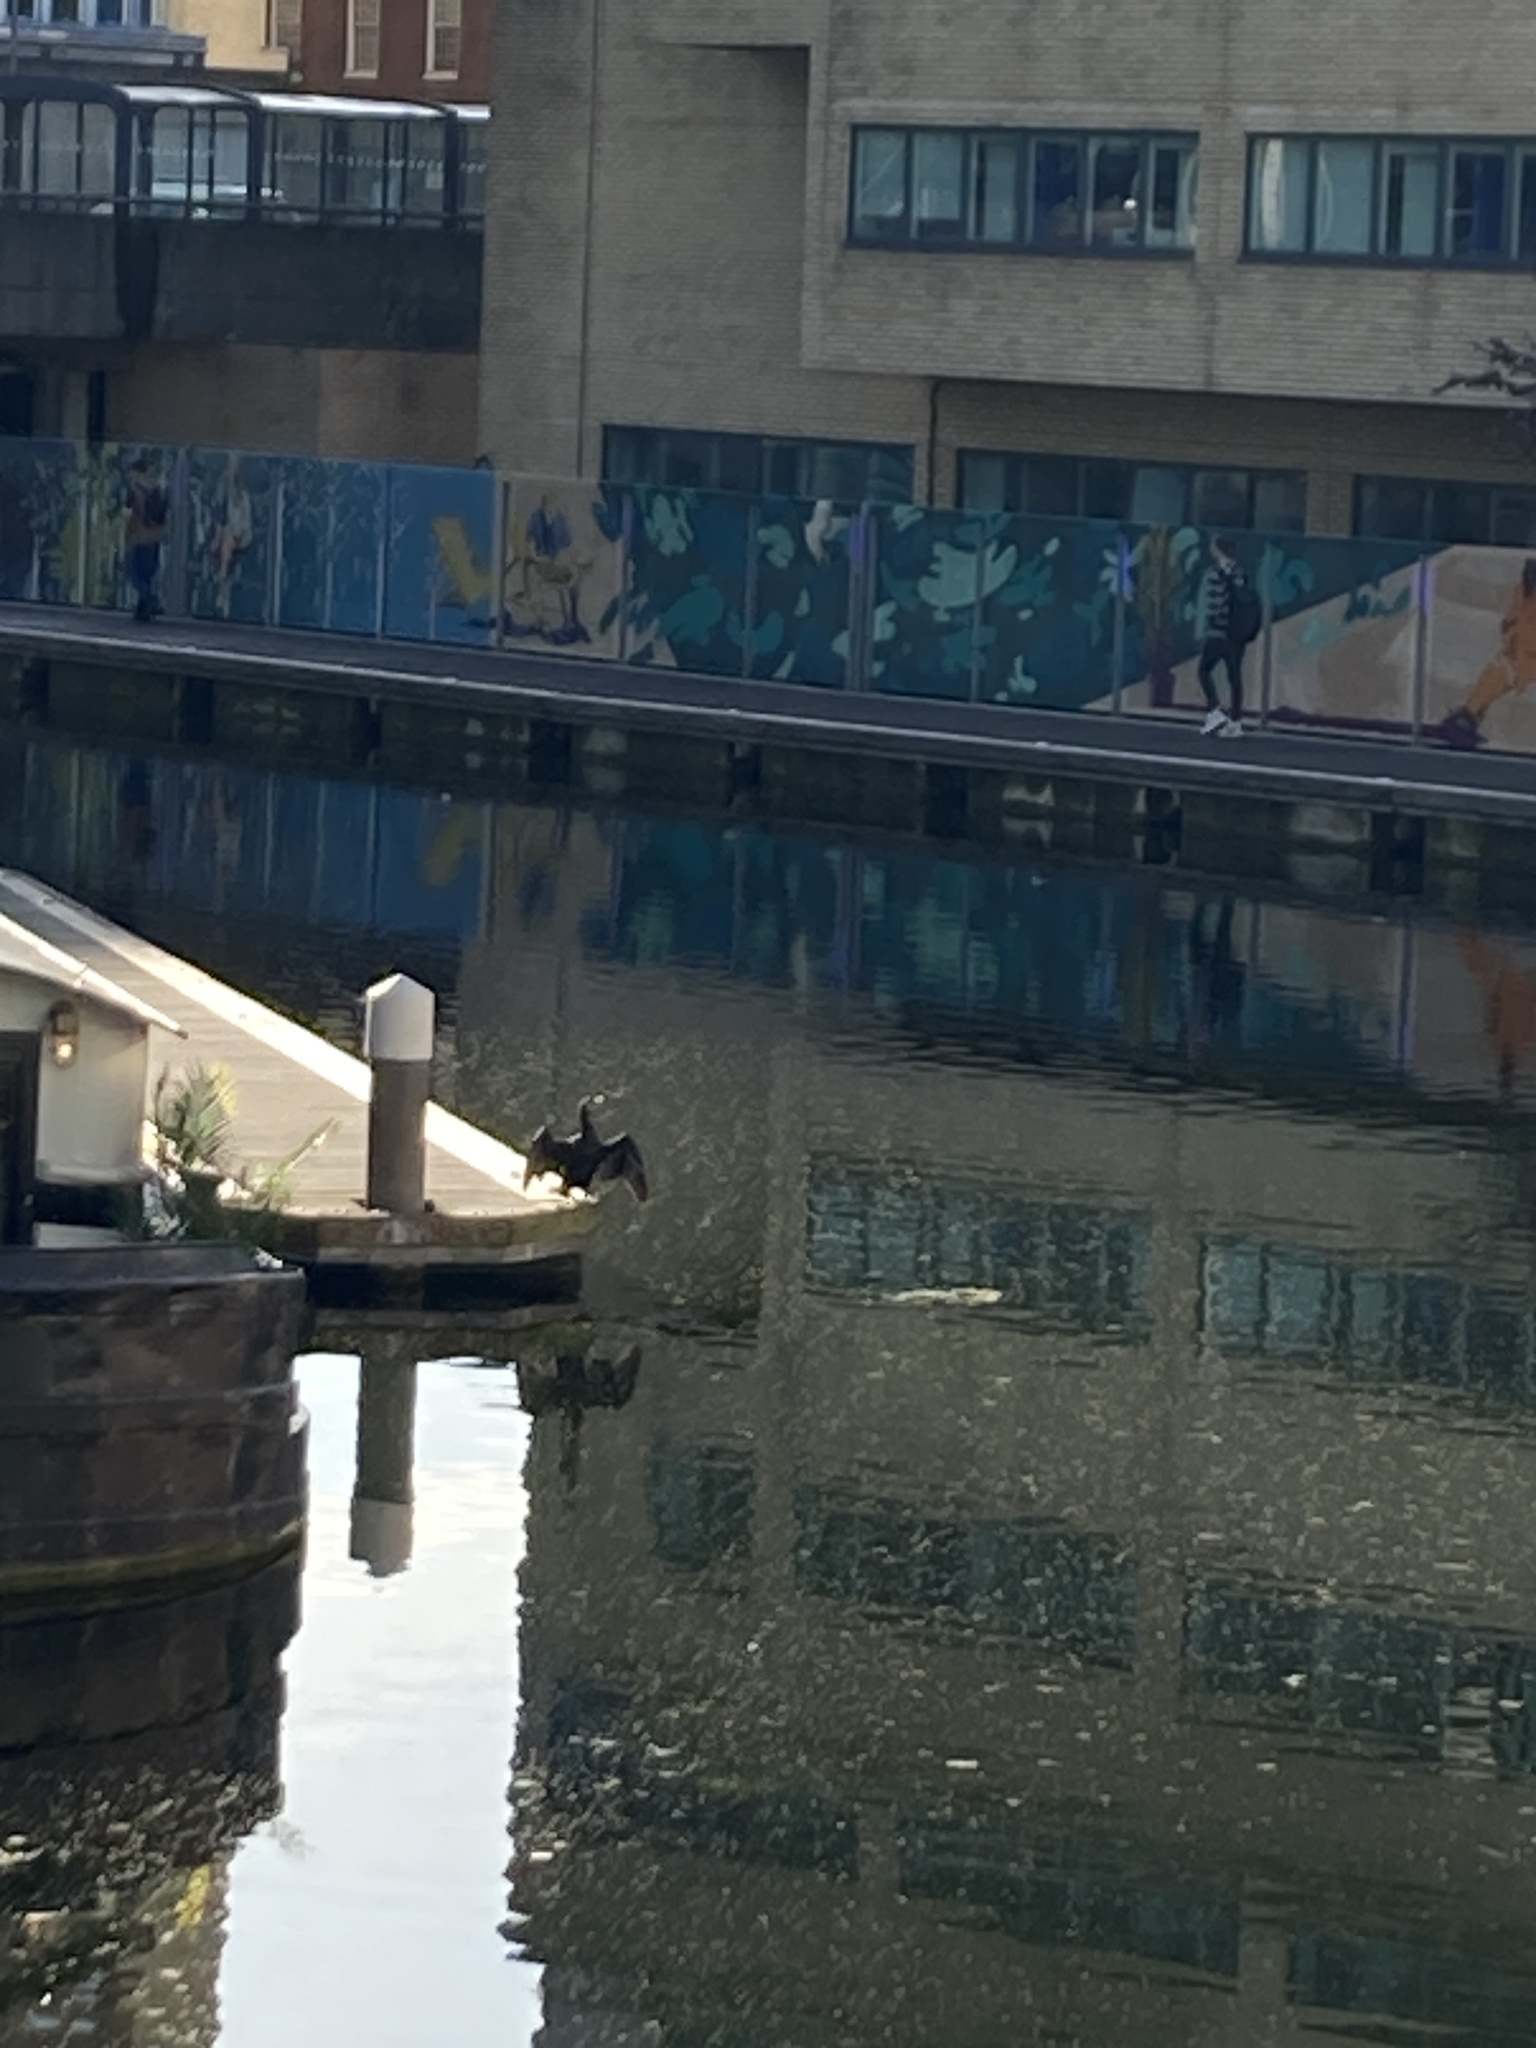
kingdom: Animalia
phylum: Chordata
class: Aves
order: Suliformes
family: Phalacrocoracidae
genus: Phalacrocorax
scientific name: Phalacrocorax carbo
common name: Great cormorant
